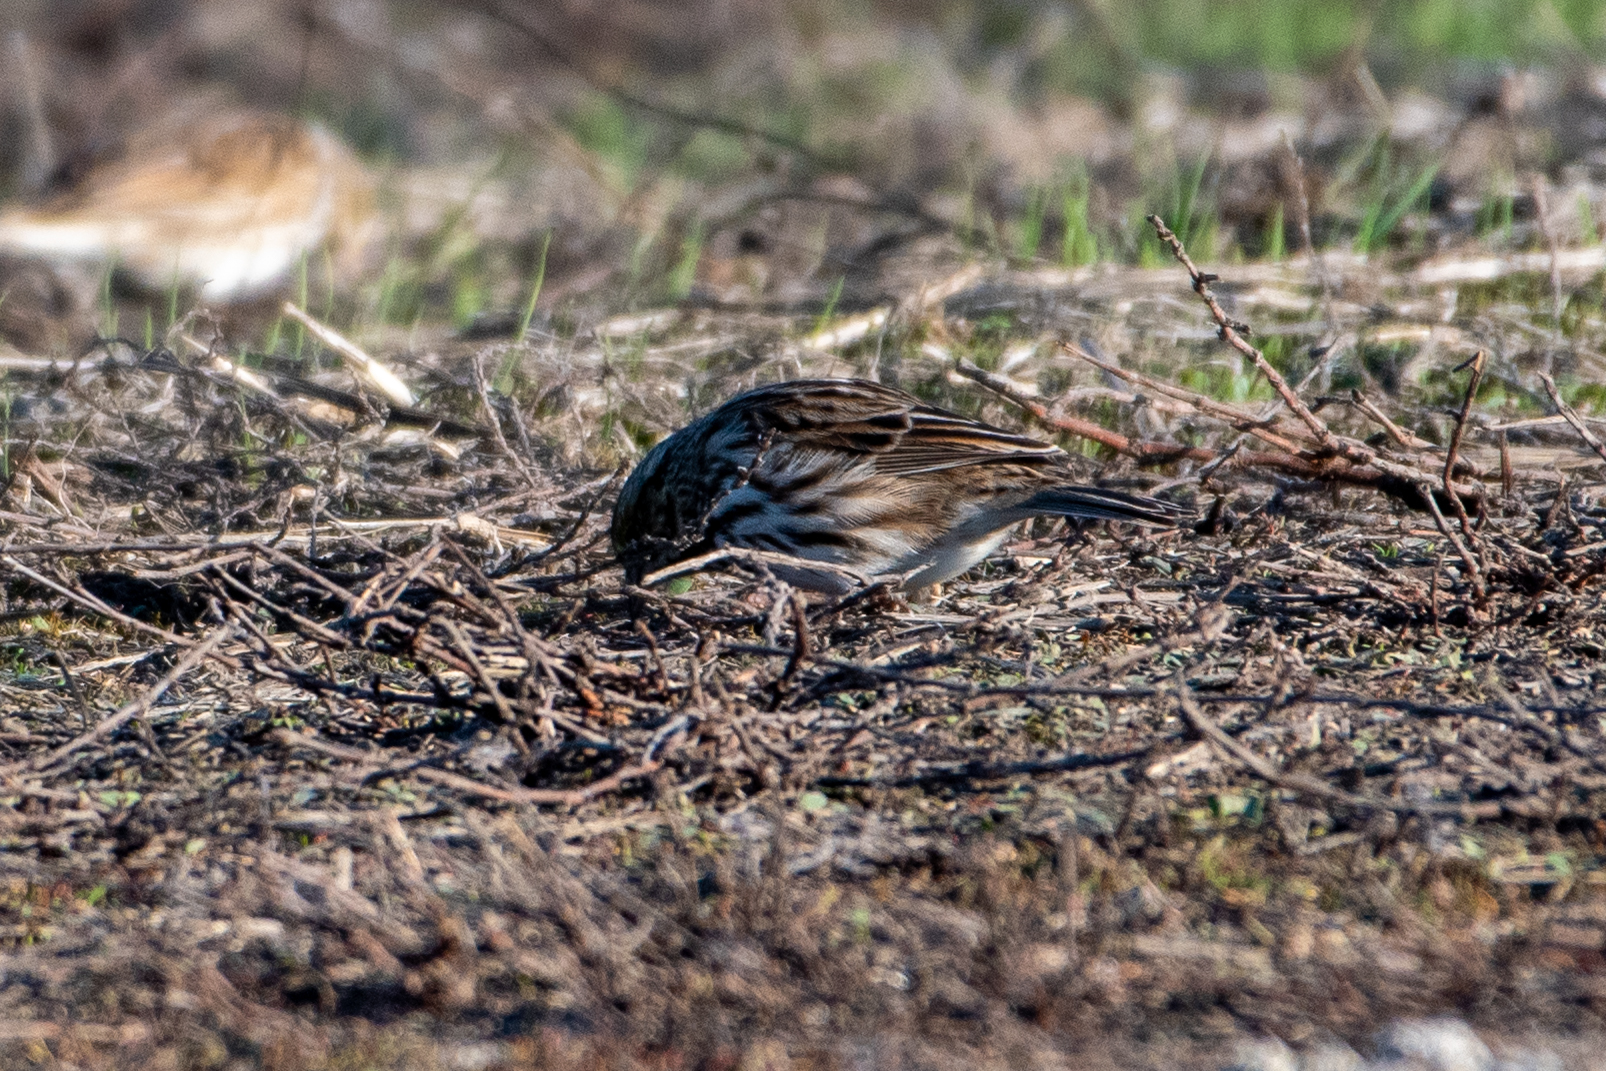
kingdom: Animalia
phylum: Chordata
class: Aves
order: Passeriformes
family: Passerellidae
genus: Passerculus
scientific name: Passerculus sandwichensis
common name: Savannah sparrow
